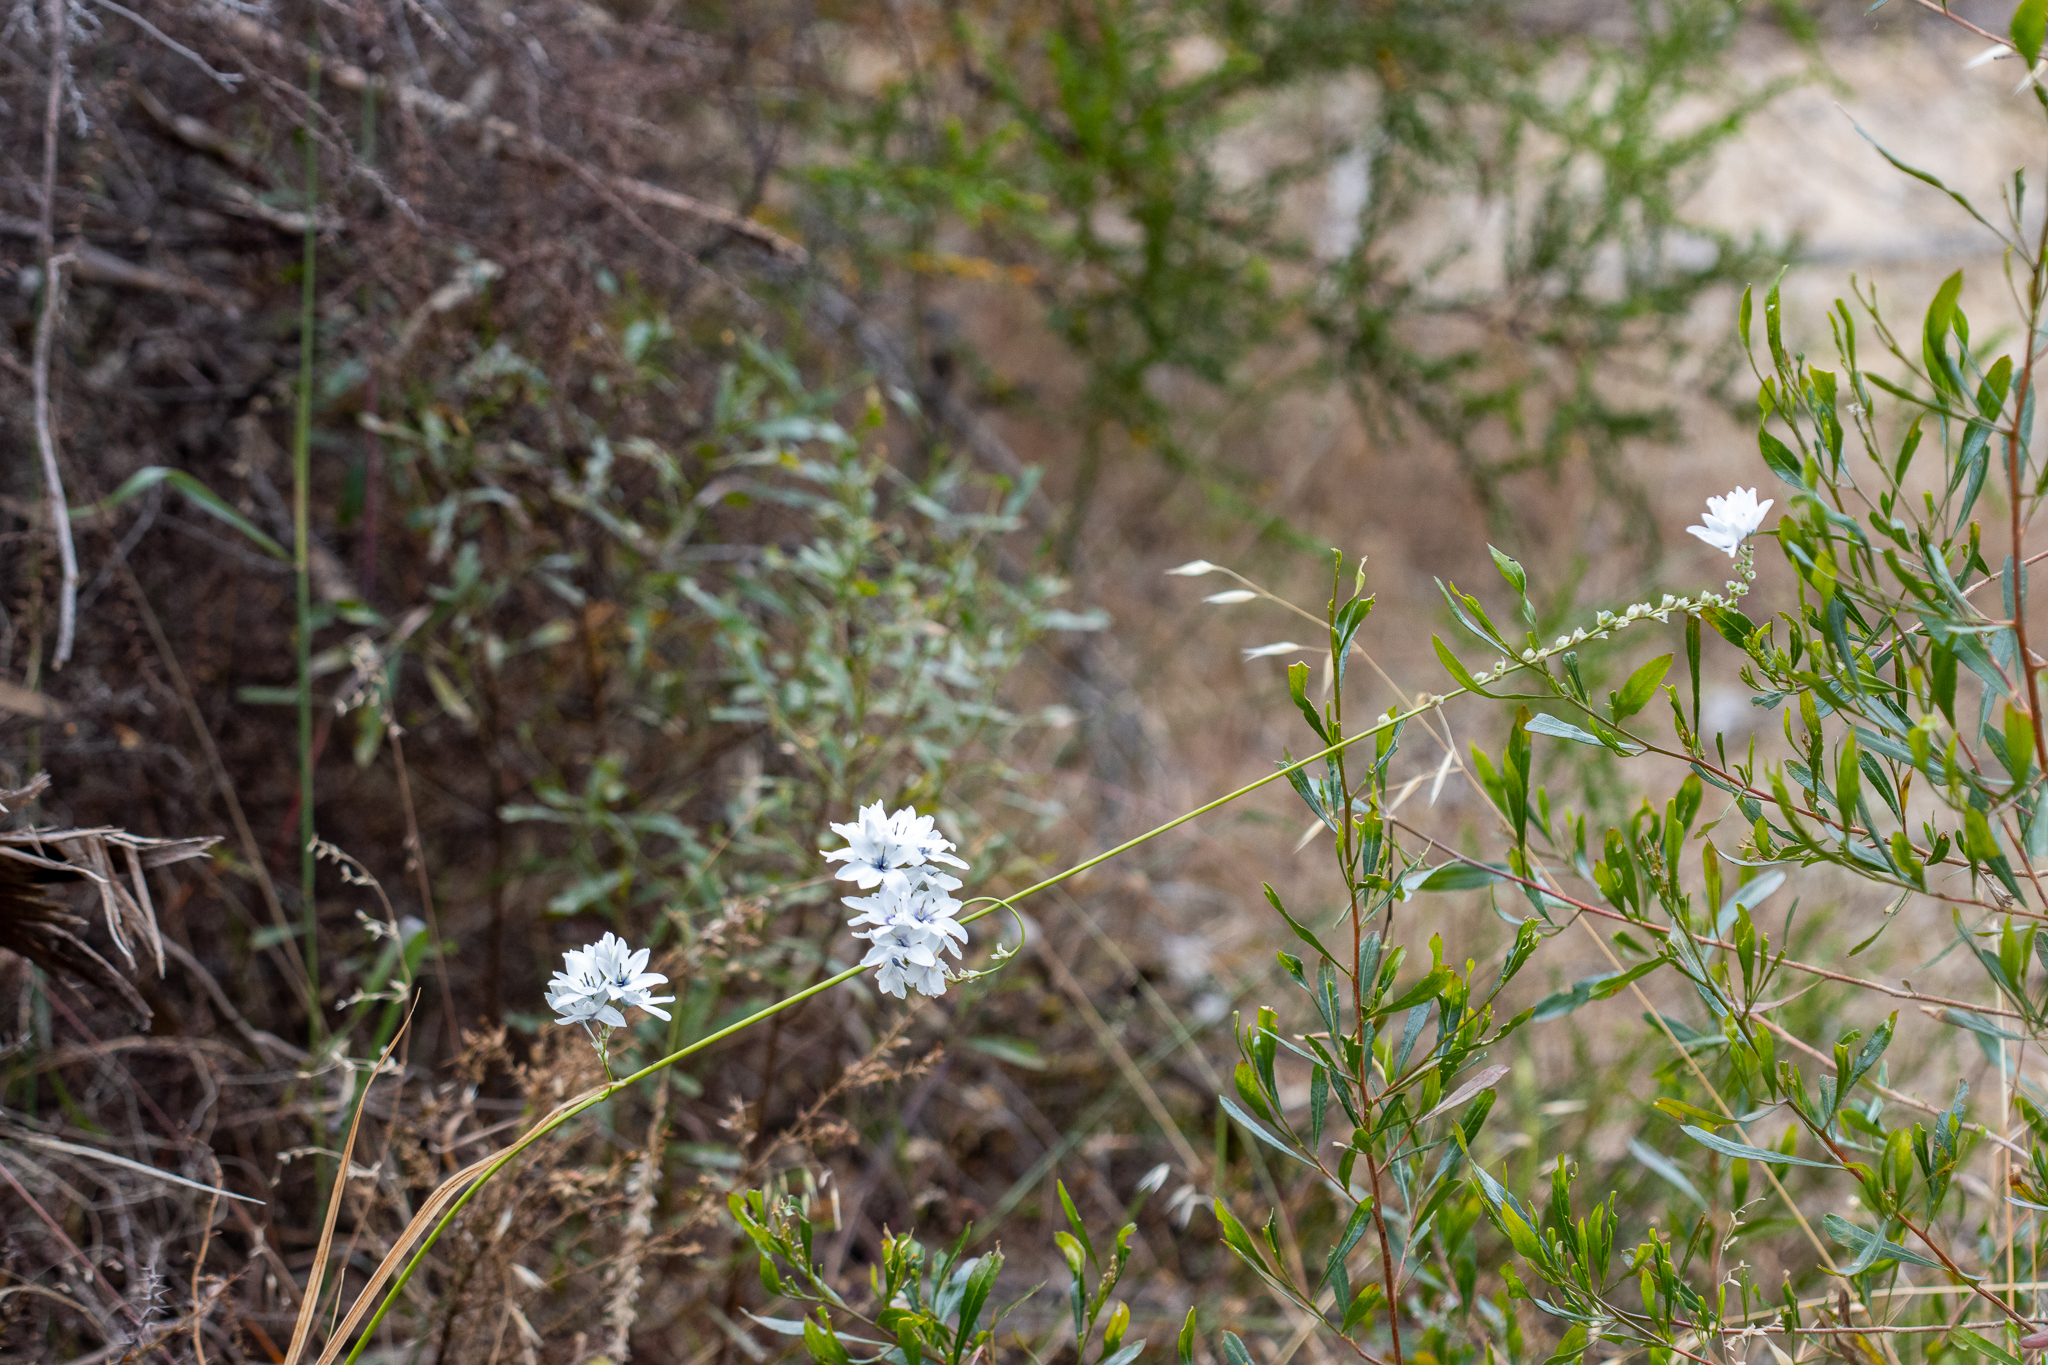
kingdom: Plantae
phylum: Tracheophyta
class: Liliopsida
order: Asparagales
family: Iridaceae
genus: Ixia
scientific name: Ixia polystachya
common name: White-and-yellow-flower cornlily
